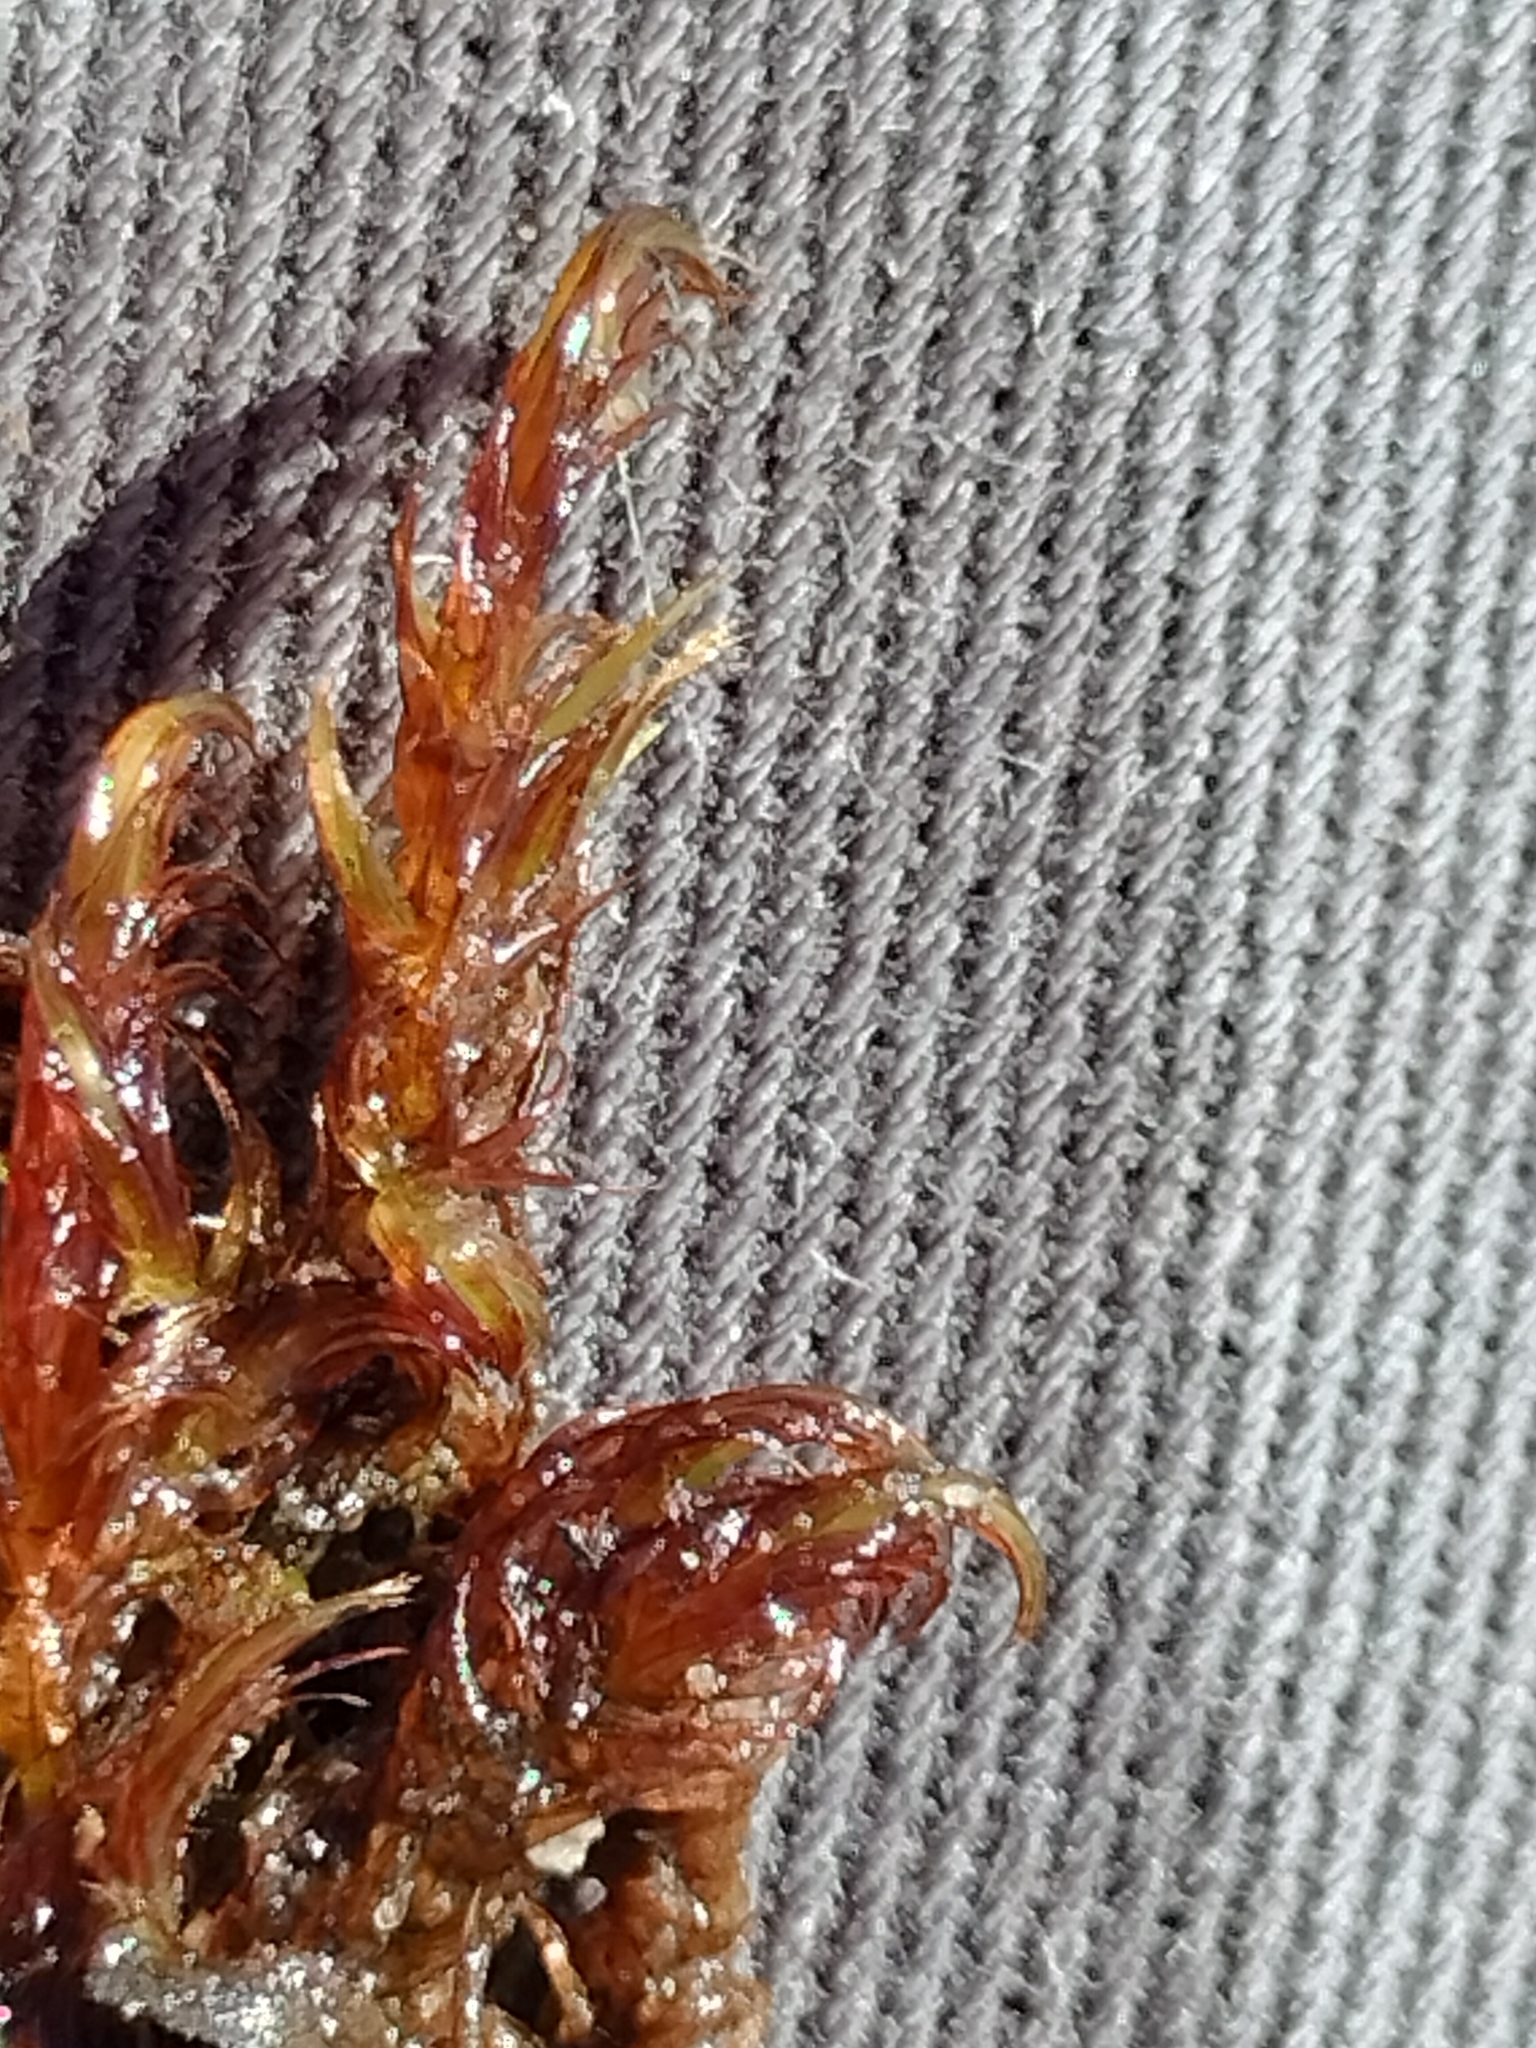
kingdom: Plantae
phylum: Bryophyta
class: Bryopsida
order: Hypnales
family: Calliergonaceae
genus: Sarmentypnum
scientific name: Sarmentypnum exannulatum
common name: Ringless spoon moss
